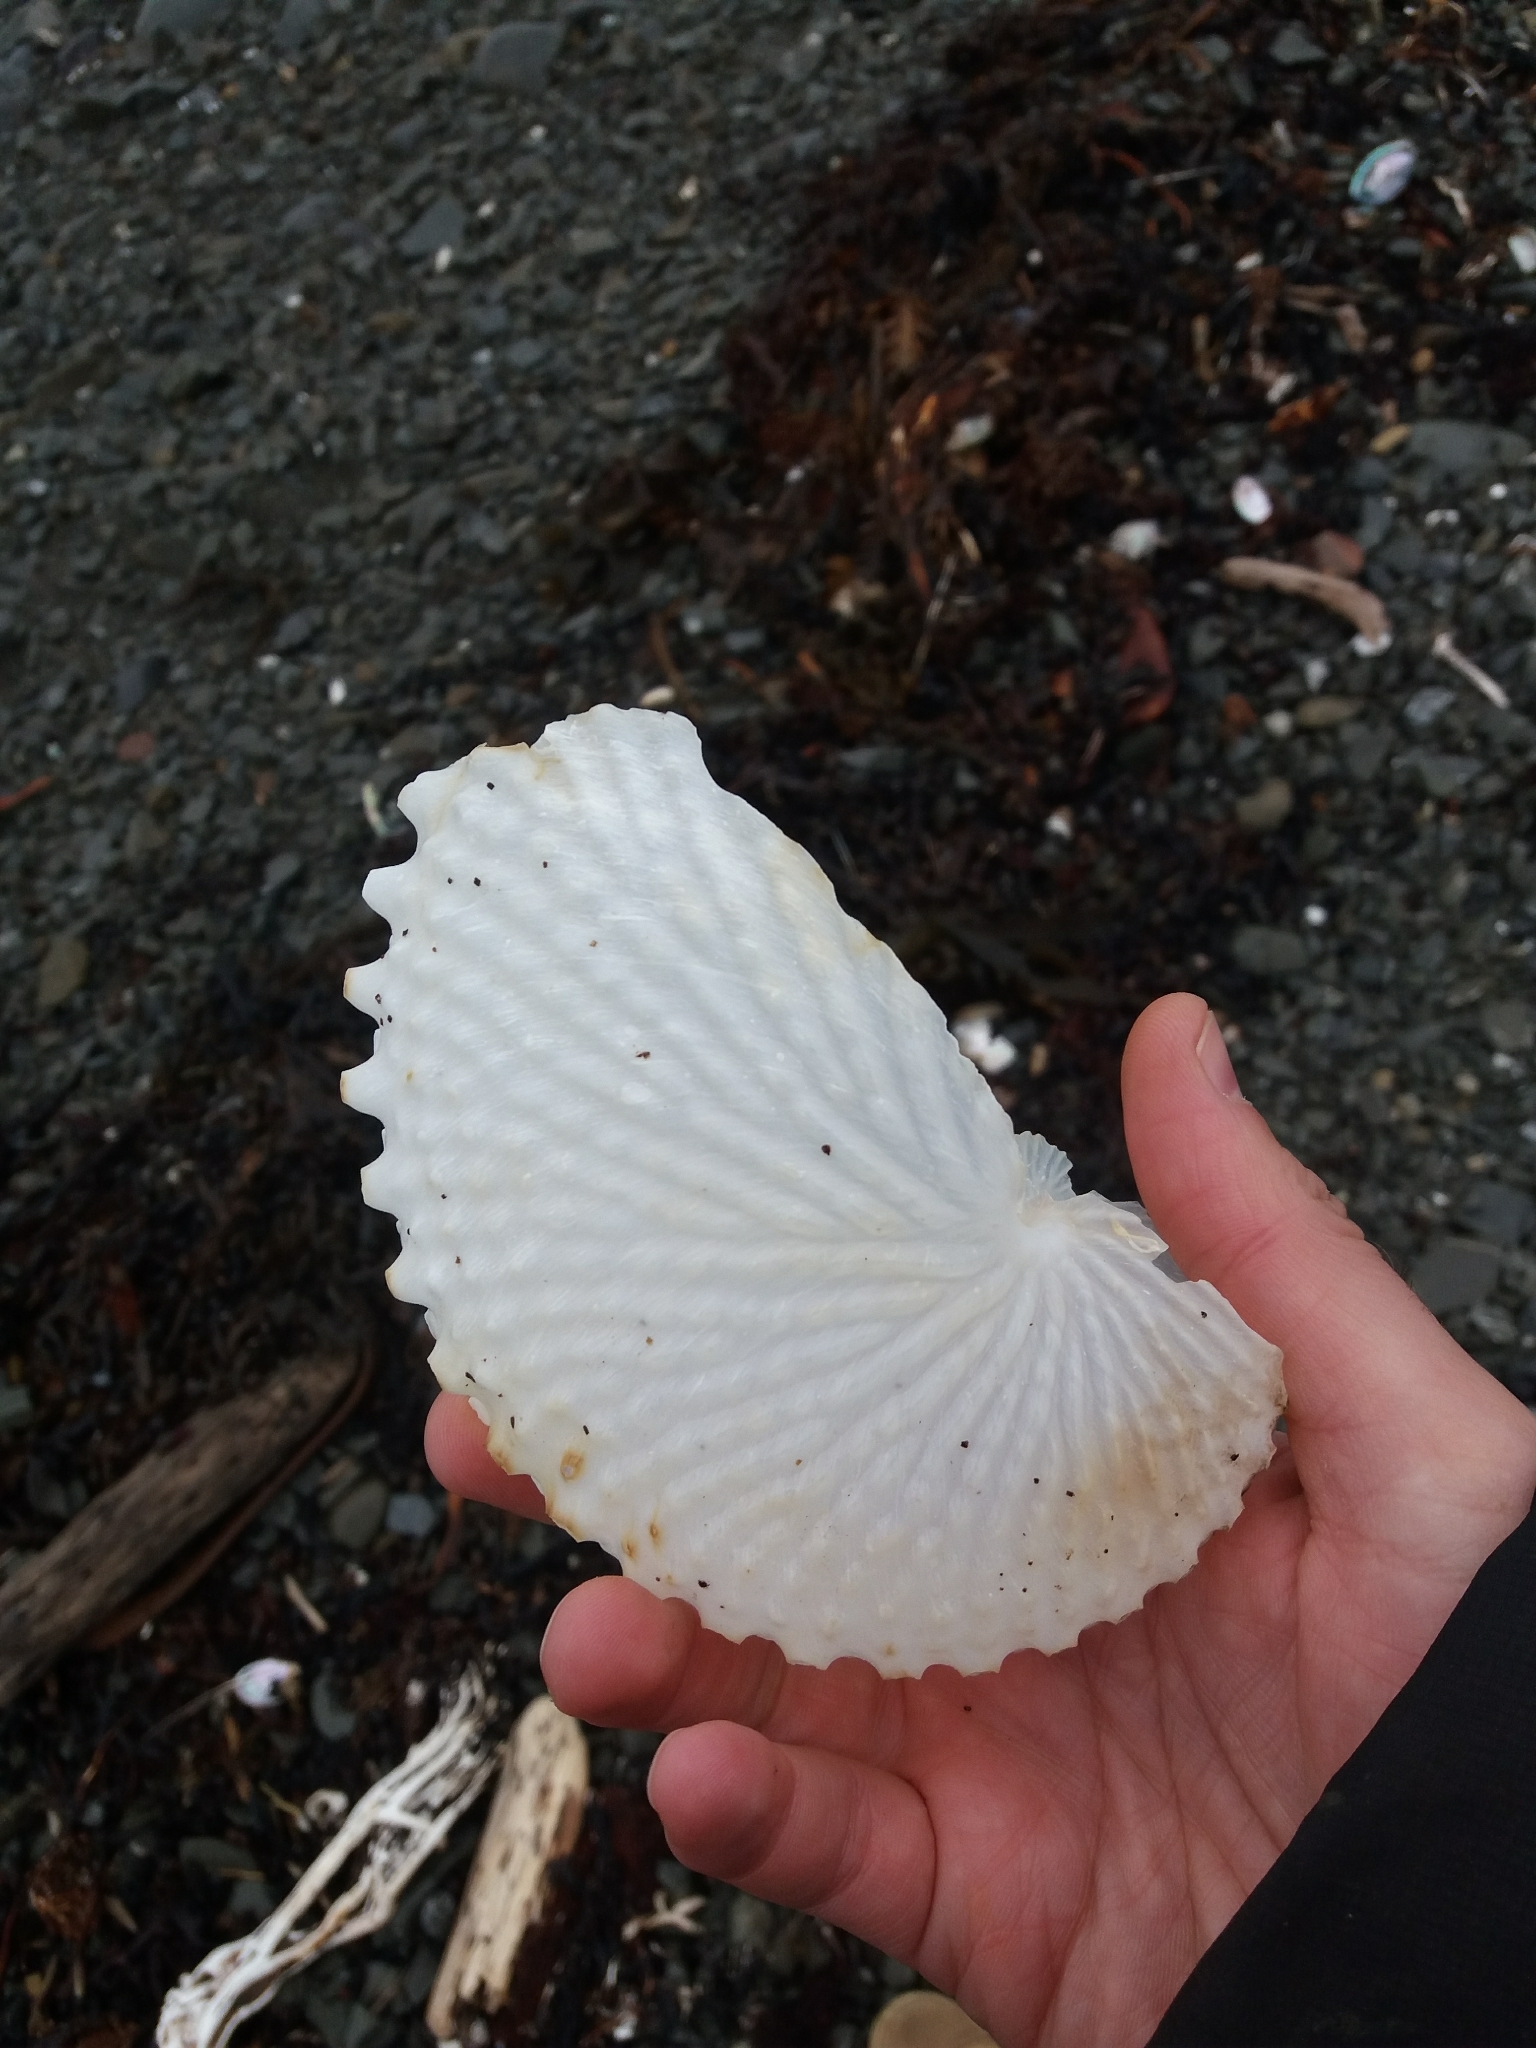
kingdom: Animalia
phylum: Mollusca
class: Cephalopoda
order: Octopoda
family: Argonautidae
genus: Argonauta
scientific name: Argonauta nodosus
